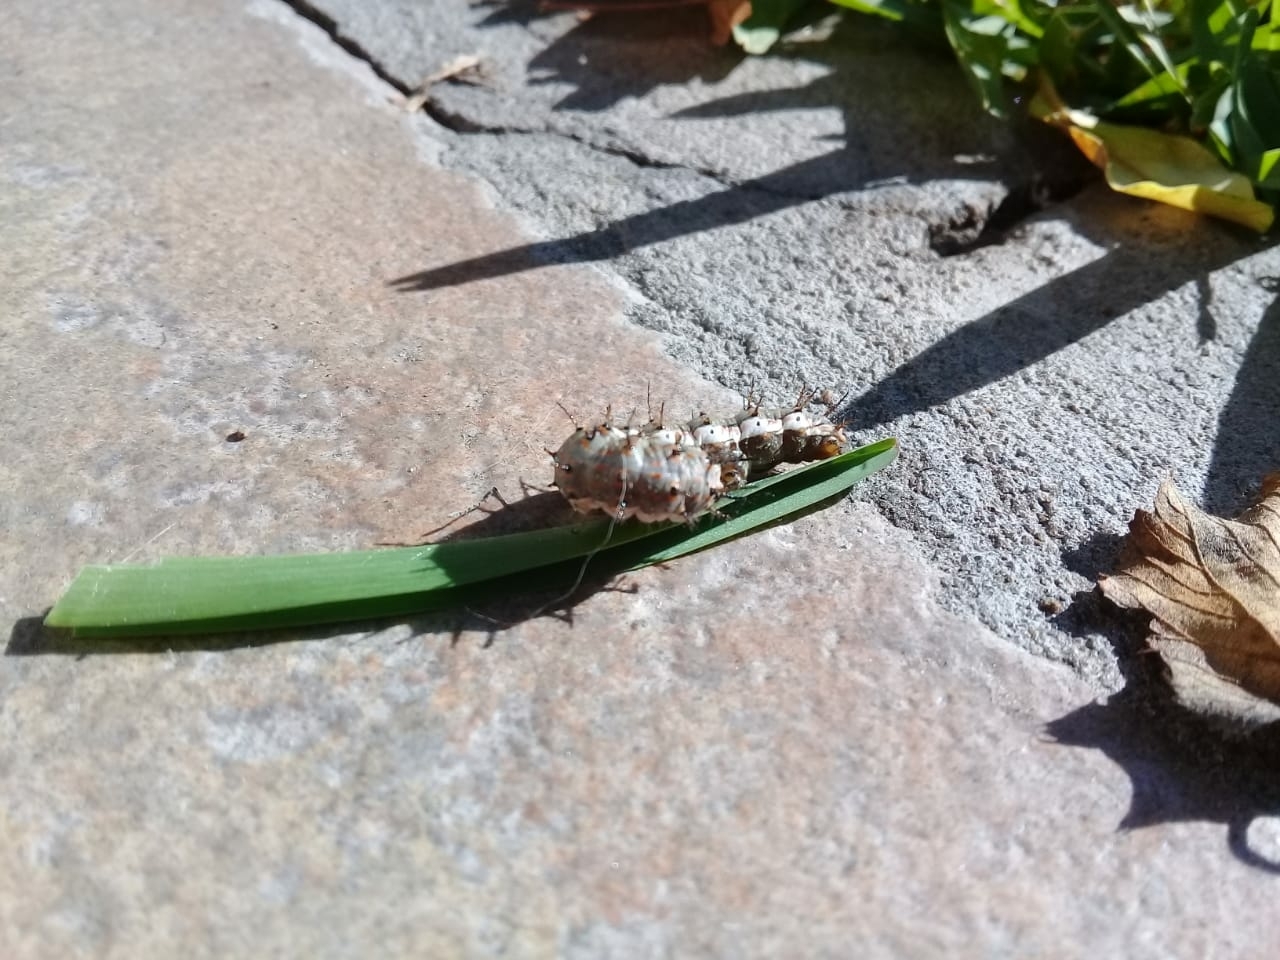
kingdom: Animalia
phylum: Arthropoda
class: Insecta
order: Lepidoptera
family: Nymphalidae
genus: Dione
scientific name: Dione vanillae
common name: Gulf fritillary
